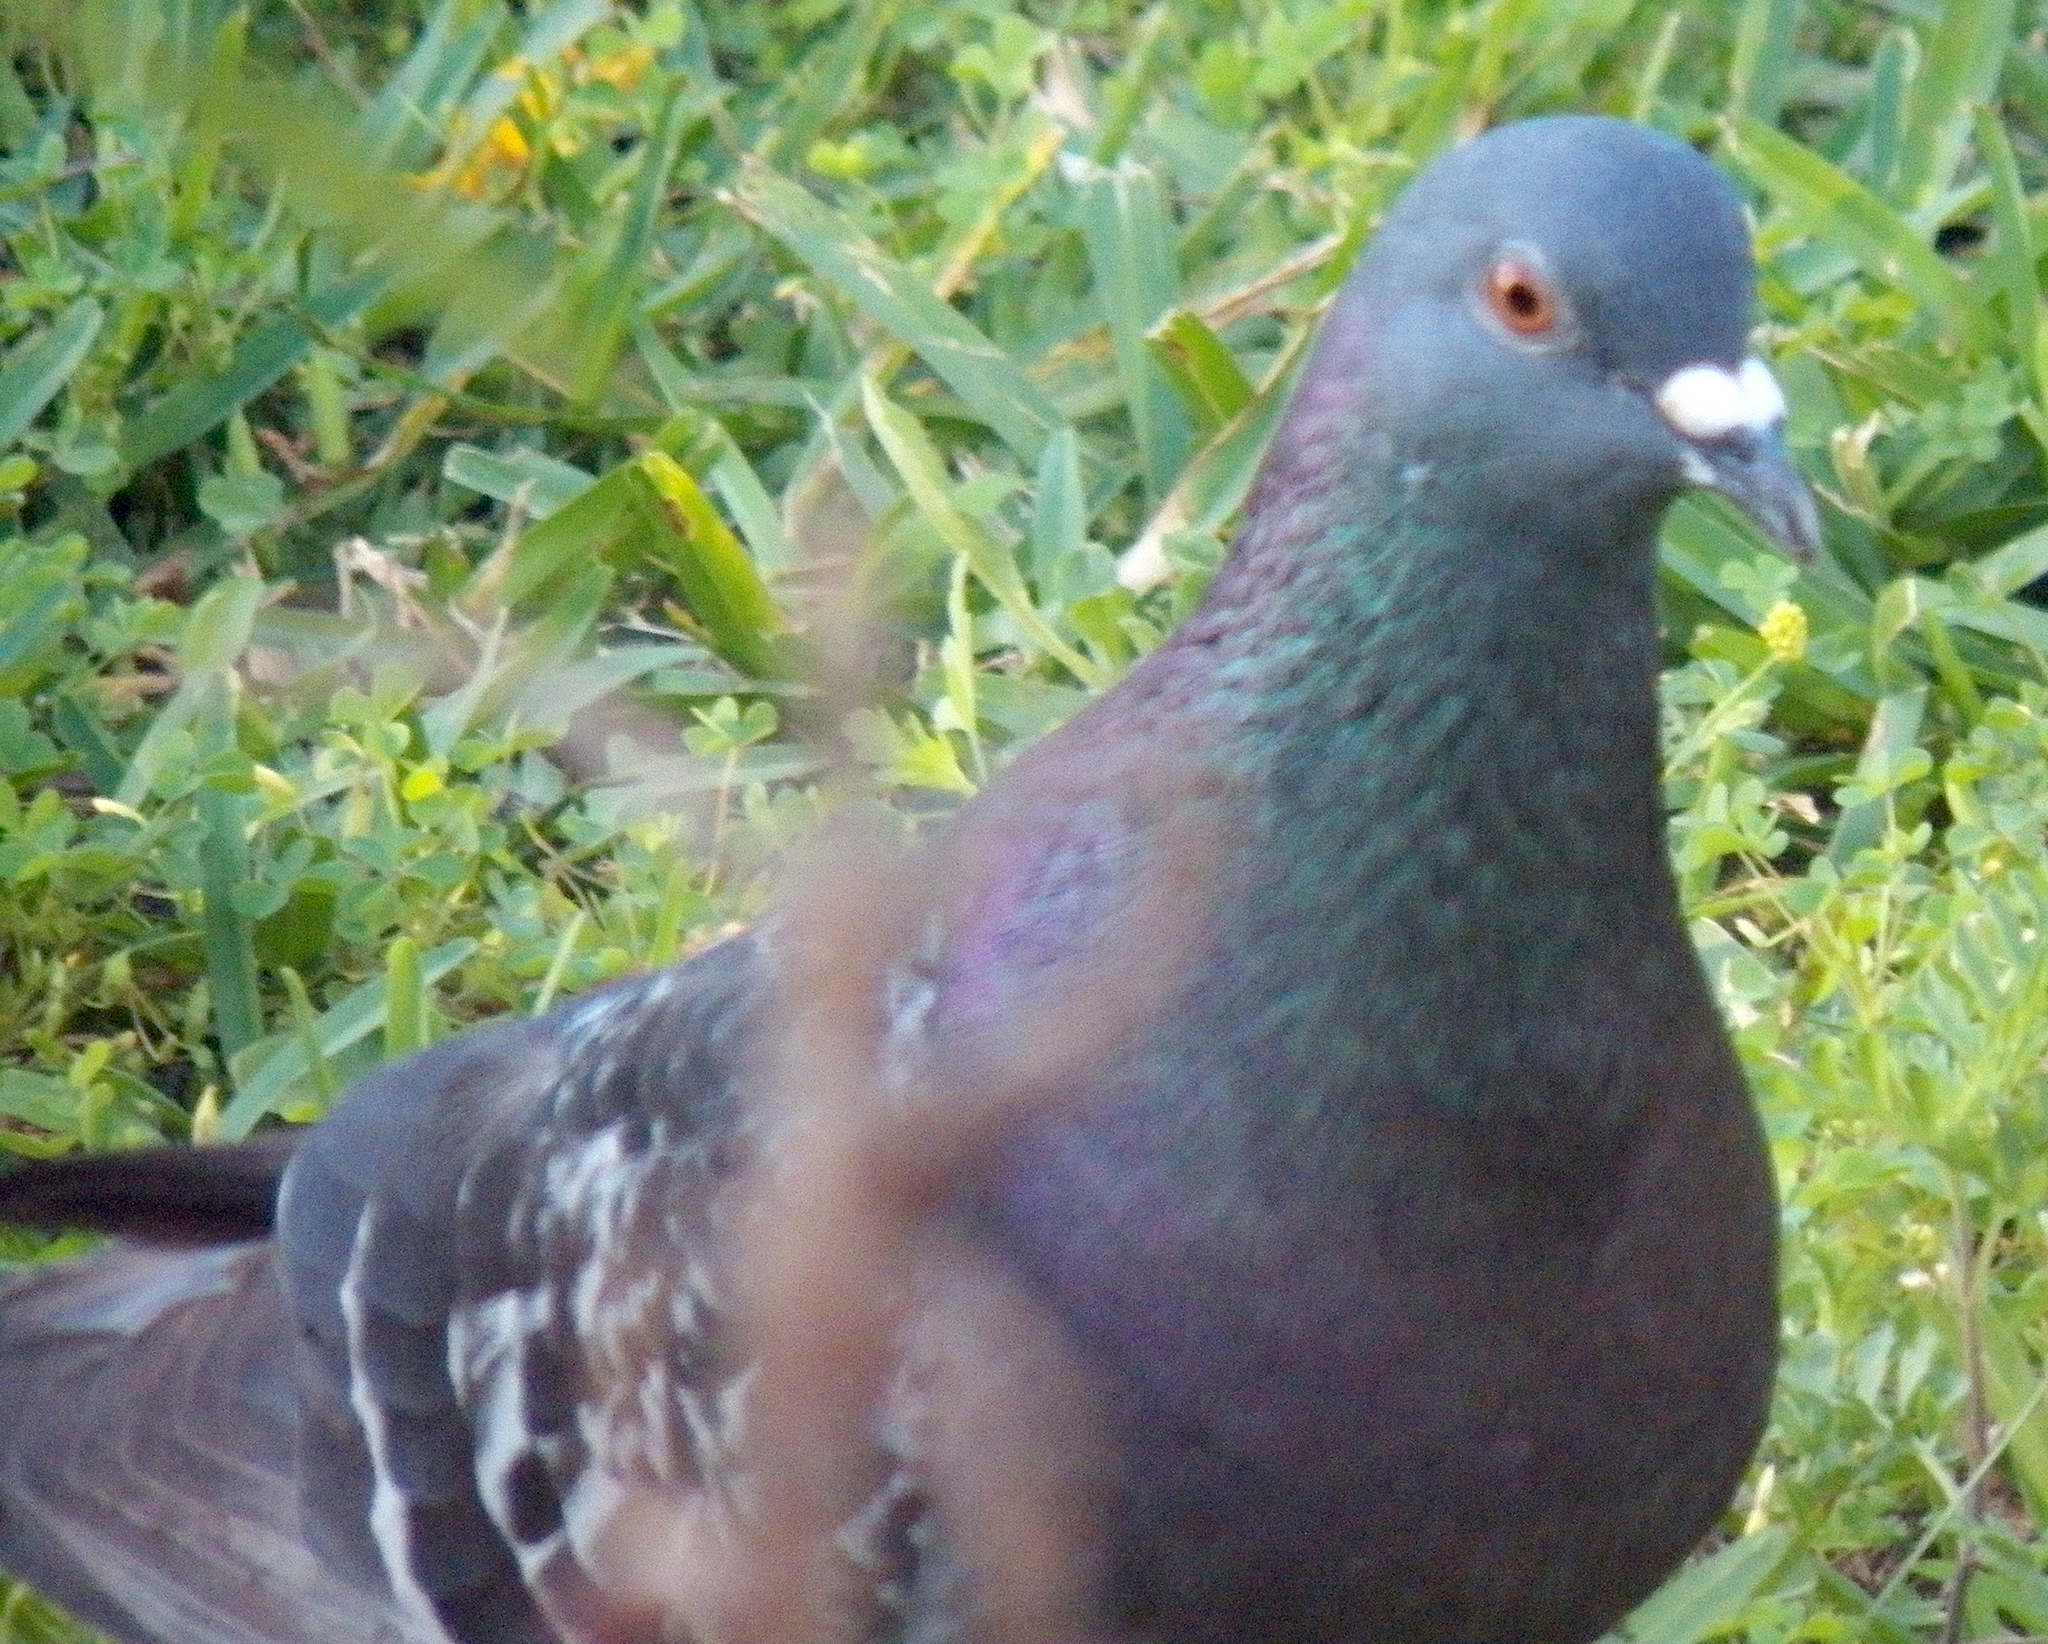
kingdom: Animalia
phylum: Chordata
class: Aves
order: Columbiformes
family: Columbidae
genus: Columba
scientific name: Columba livia
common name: Rock pigeon
